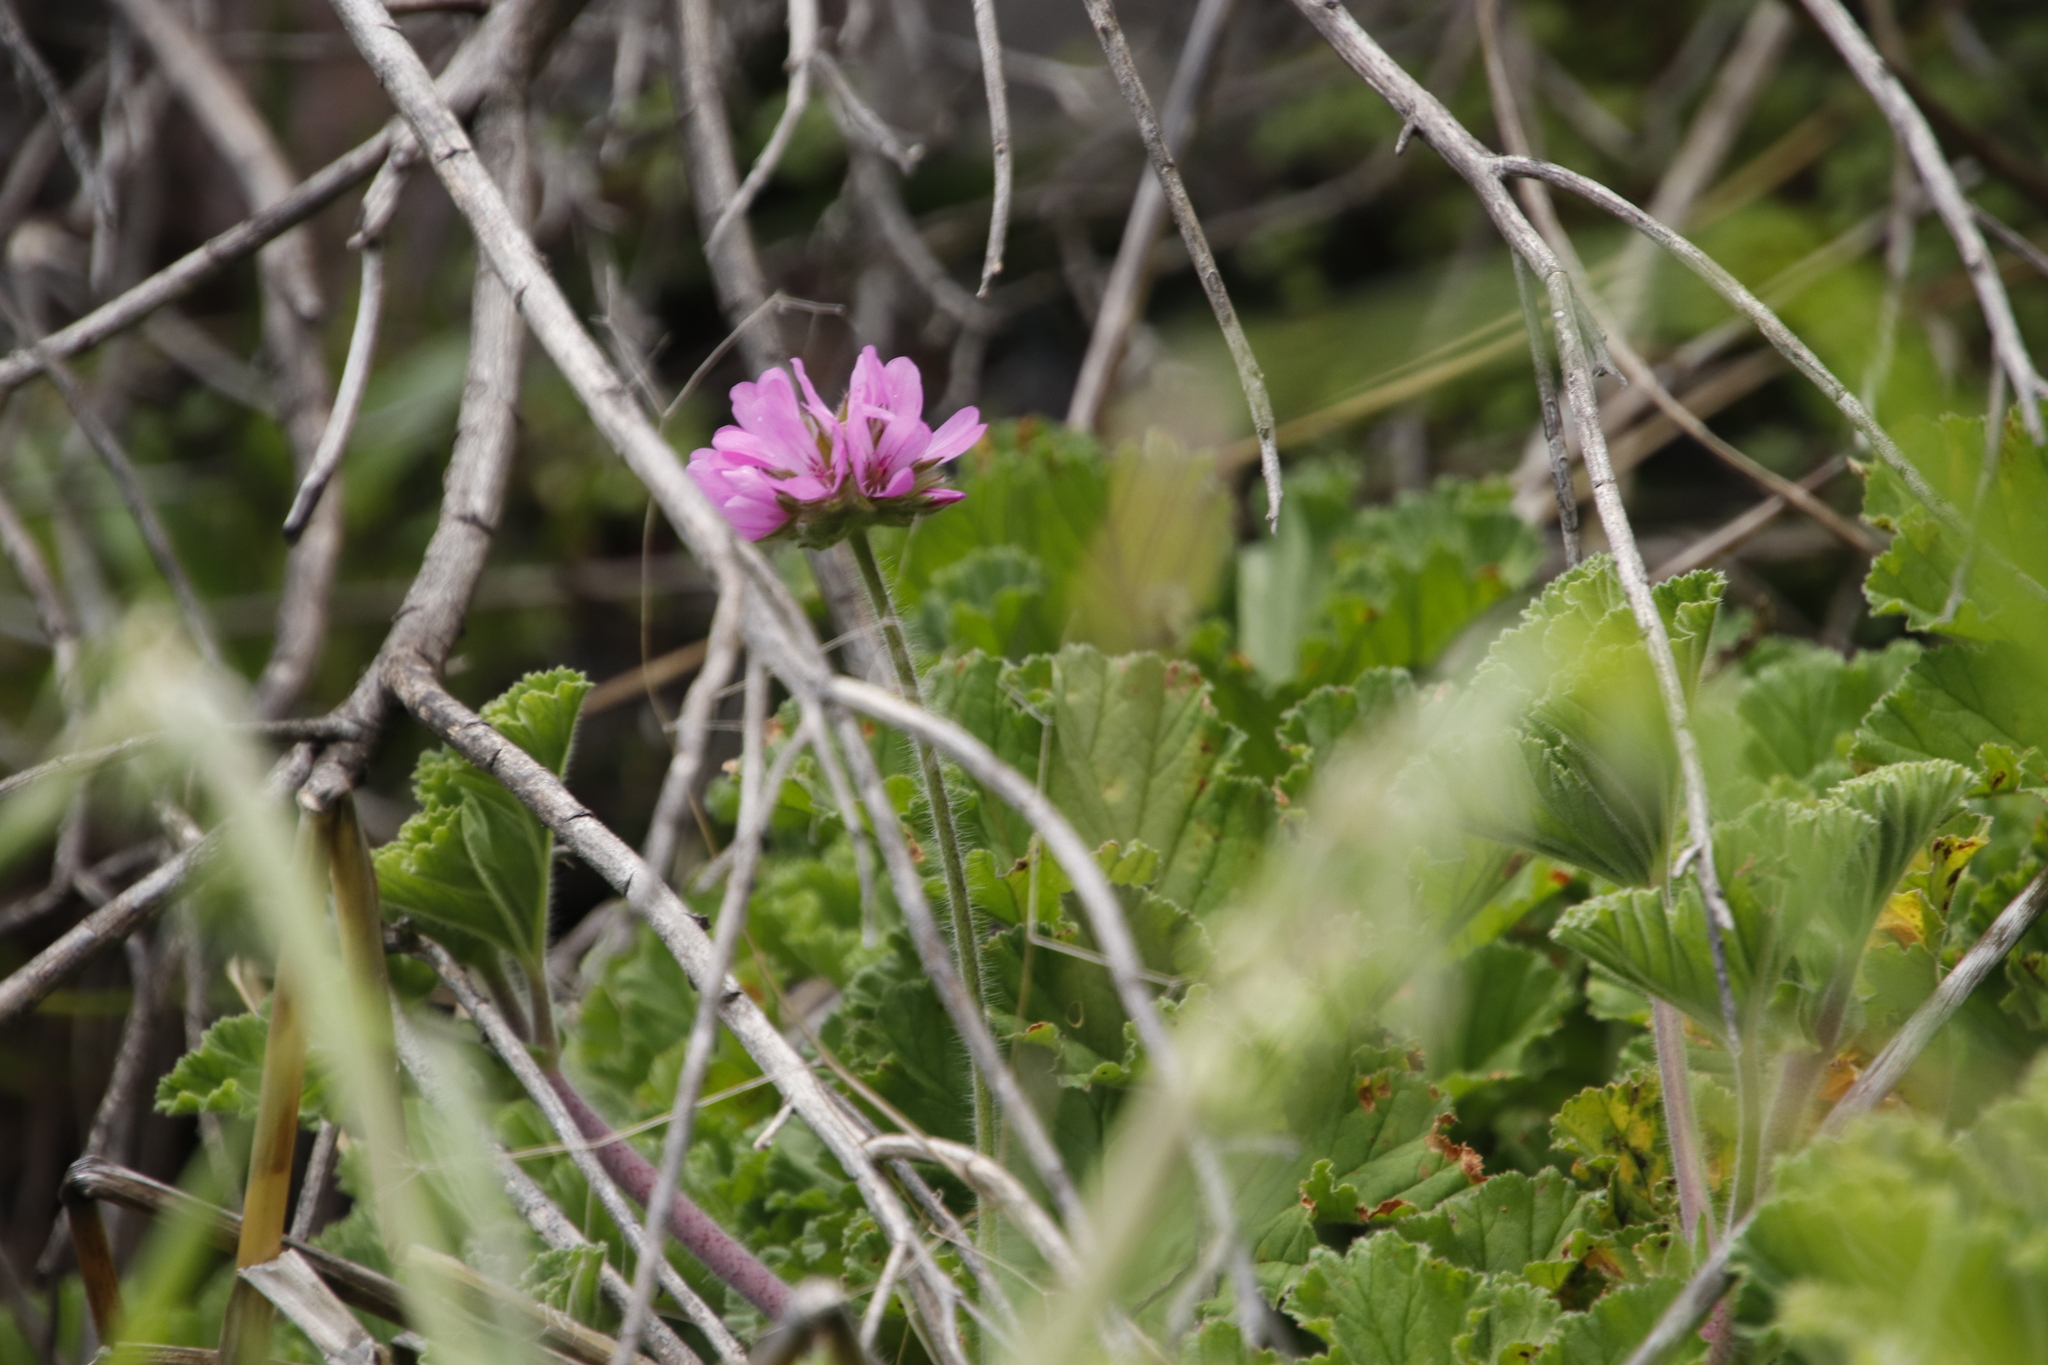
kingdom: Plantae
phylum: Tracheophyta
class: Magnoliopsida
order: Geraniales
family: Geraniaceae
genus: Pelargonium
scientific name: Pelargonium capitatum
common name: Rose scented geranium
